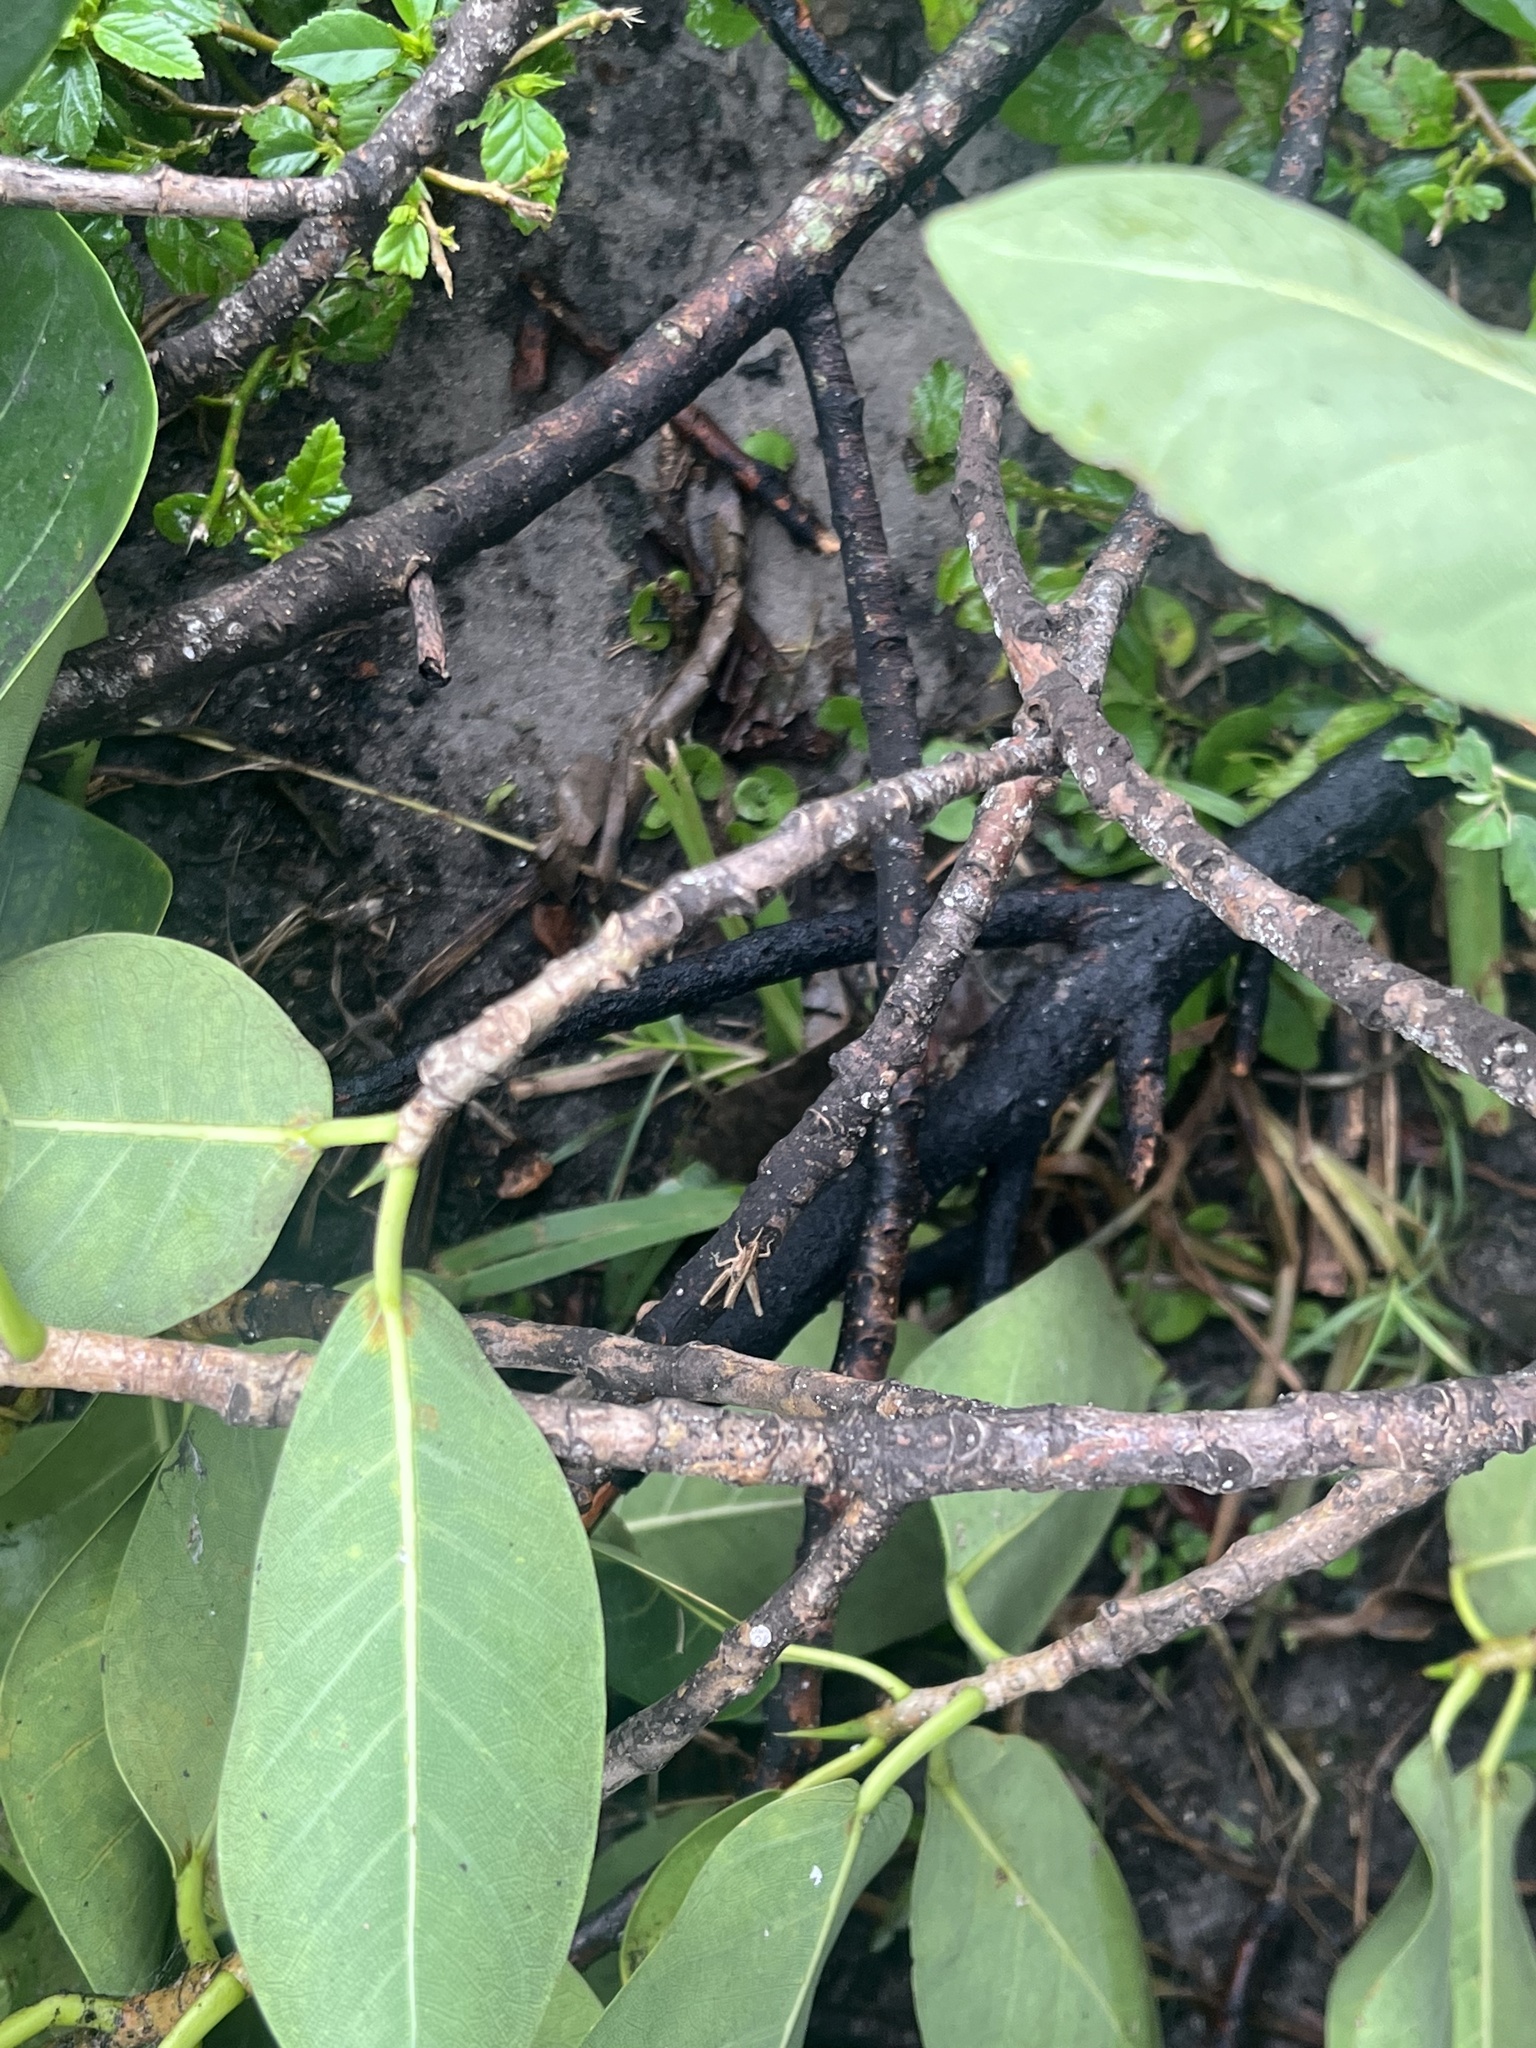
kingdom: Animalia
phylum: Arthropoda
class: Insecta
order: Orthoptera
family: Acrididae
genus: Orphulella
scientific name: Orphulella punctata
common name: Slant-faced grasshopper
